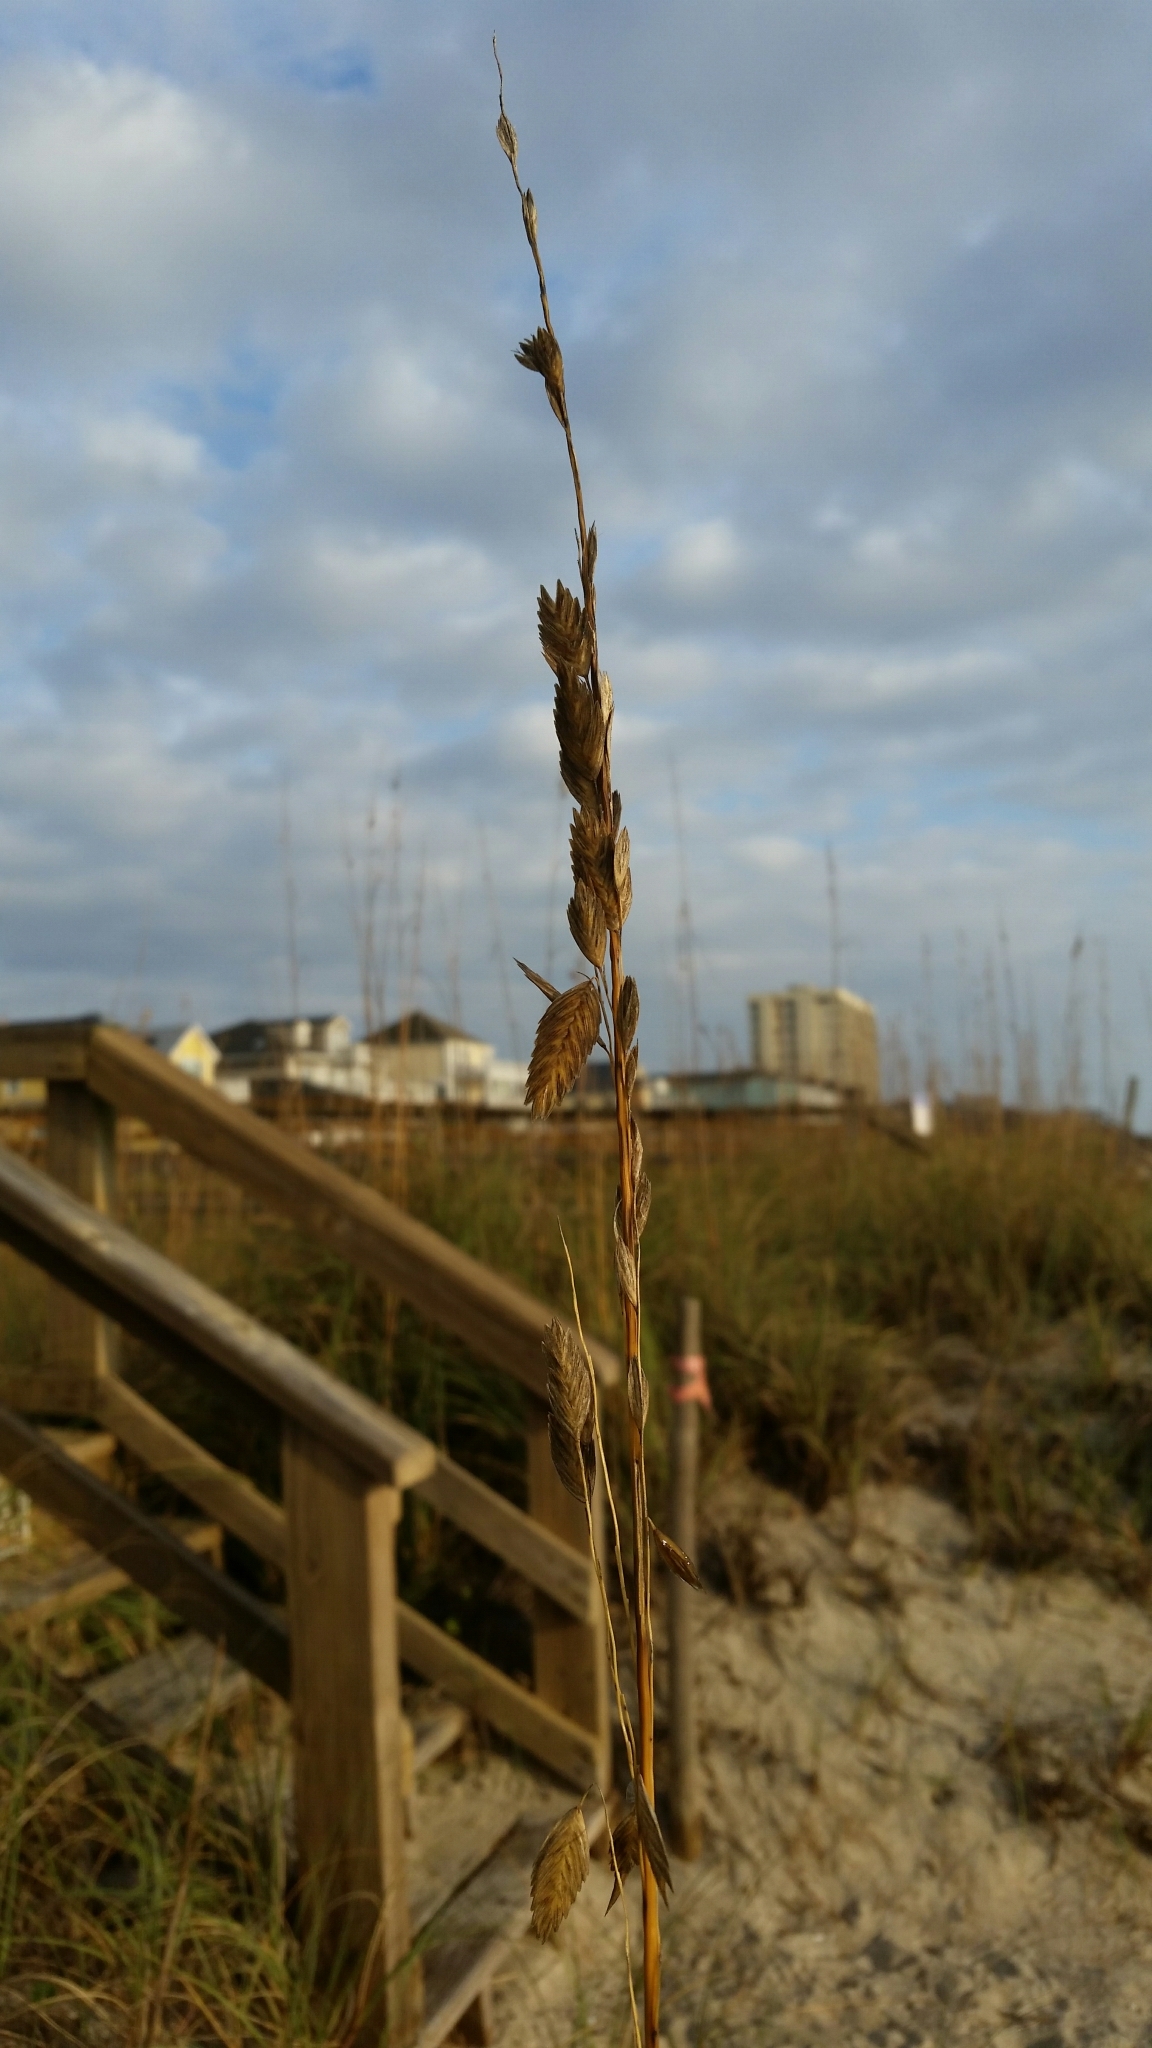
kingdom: Plantae
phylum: Tracheophyta
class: Liliopsida
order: Poales
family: Poaceae
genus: Uniola
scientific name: Uniola paniculata
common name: Seaside-oats
